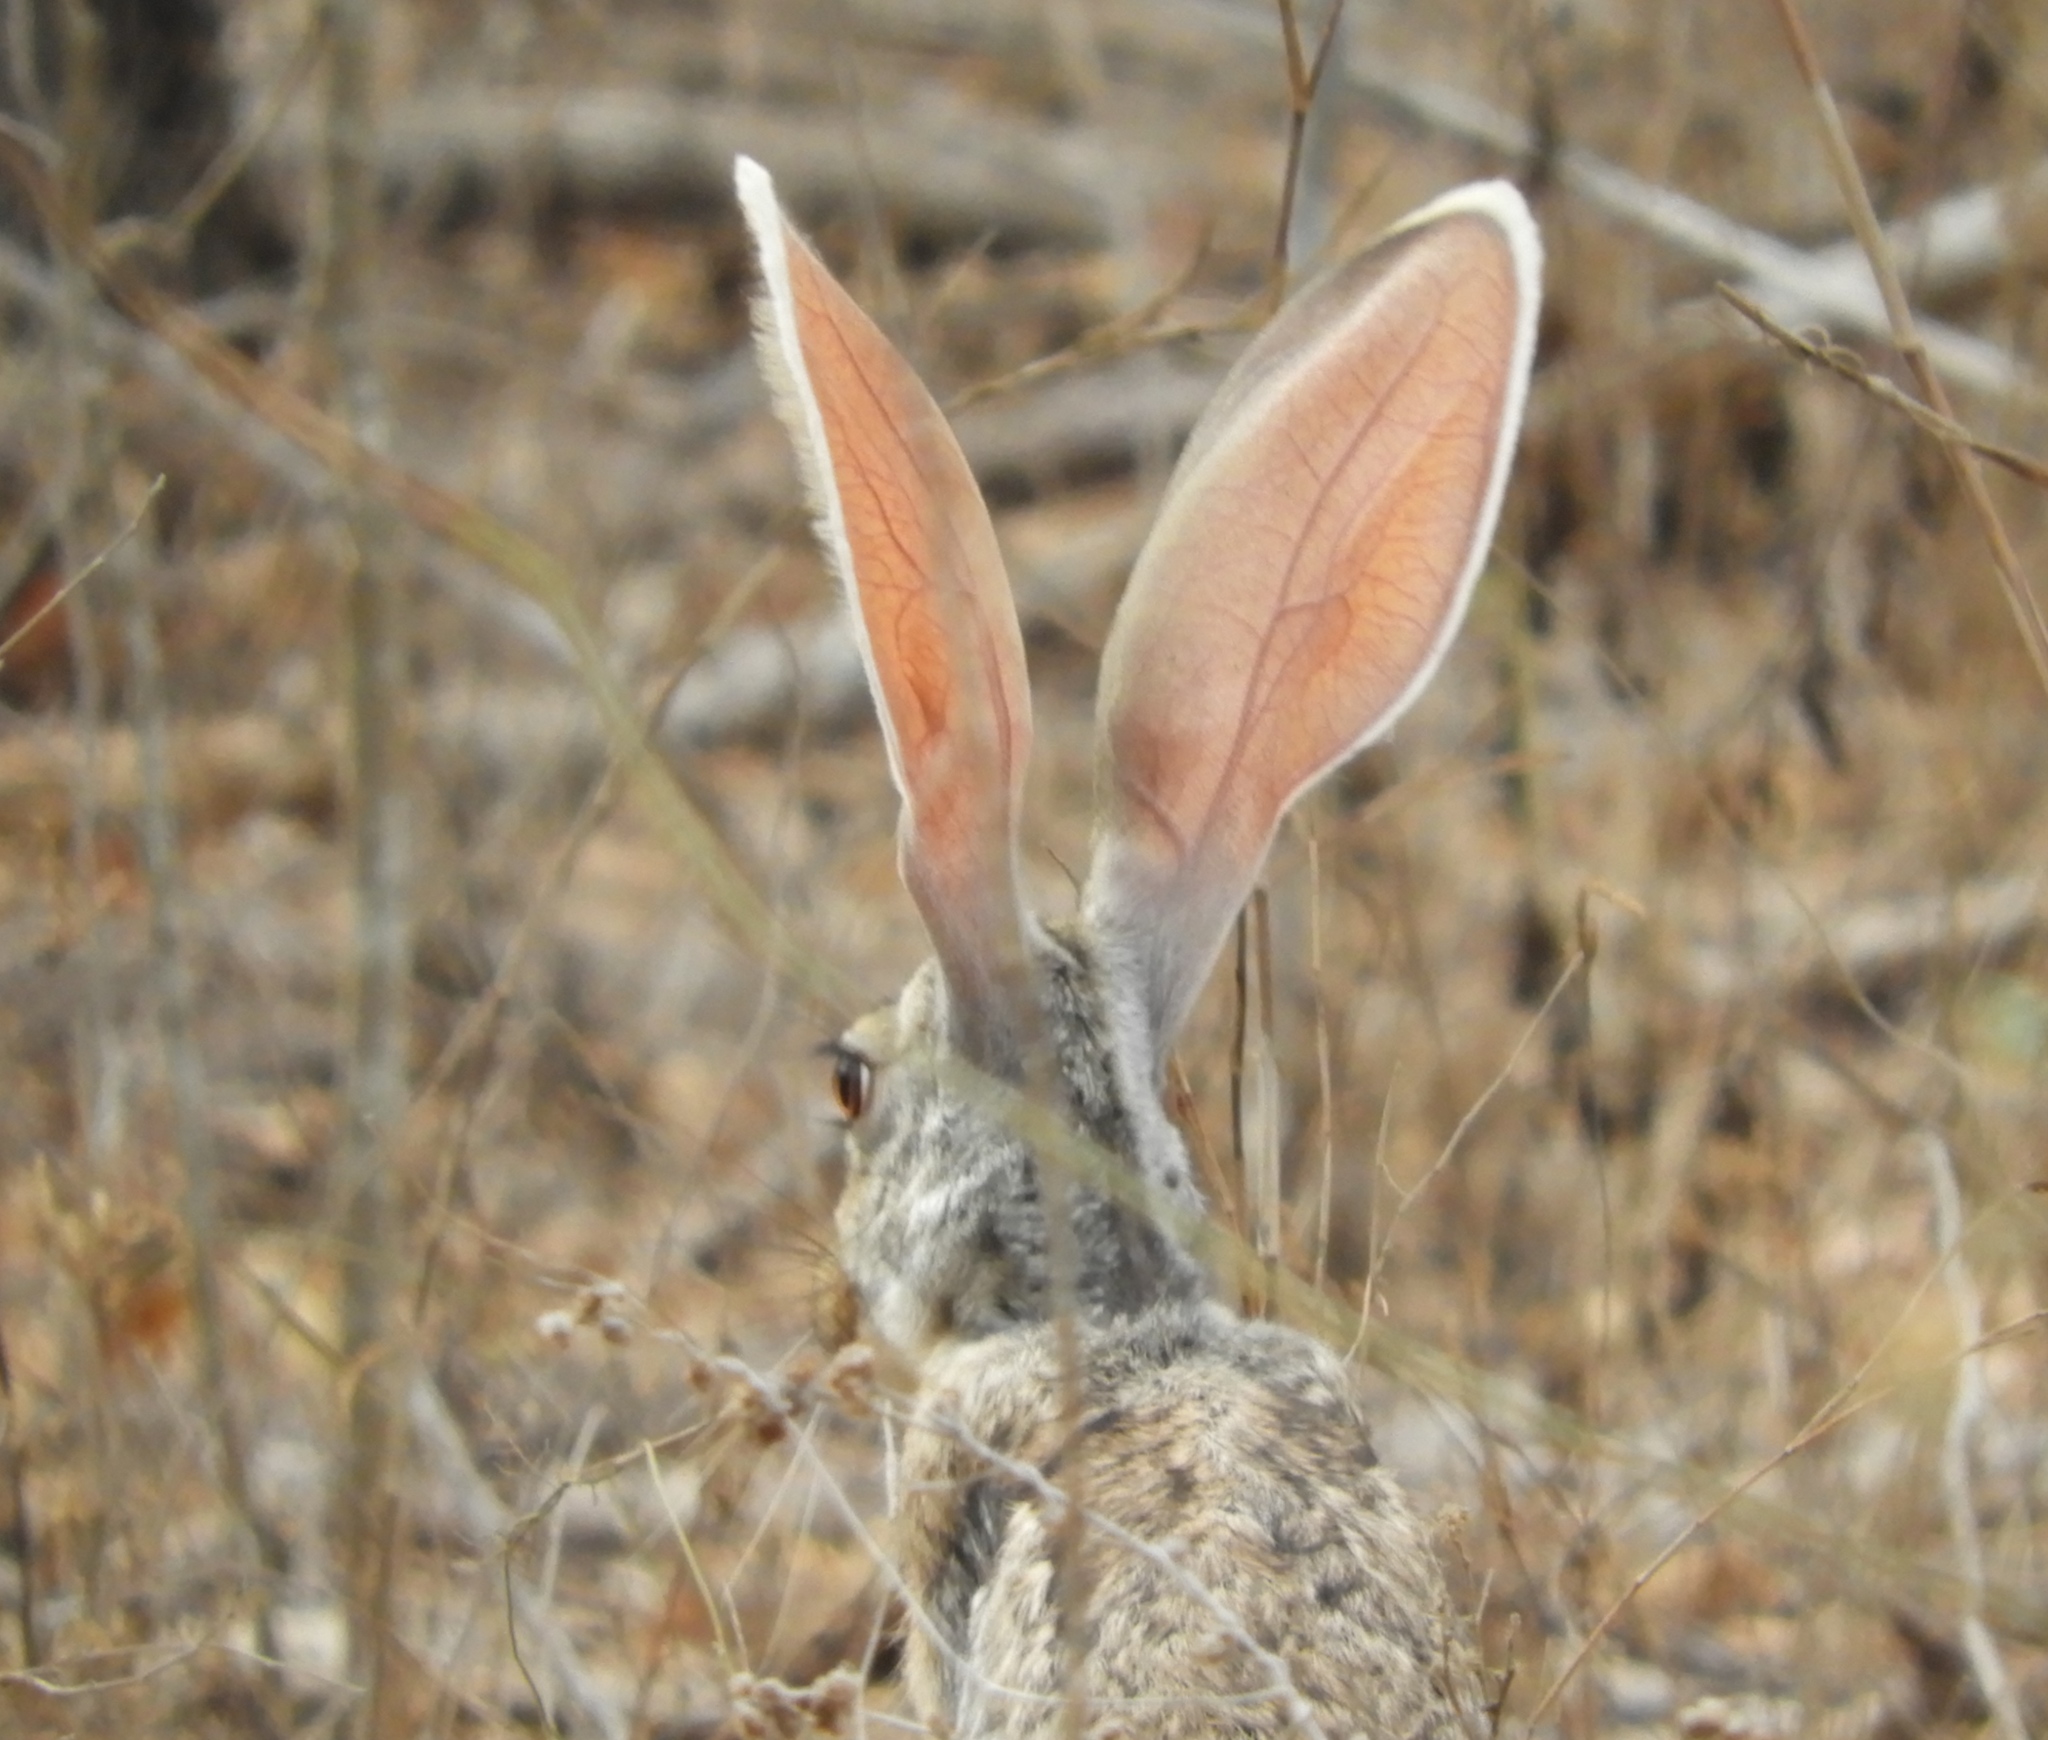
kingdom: Animalia
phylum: Chordata
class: Mammalia
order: Lagomorpha
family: Leporidae
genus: Lepus
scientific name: Lepus alleni
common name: Antelope jackrabbit
